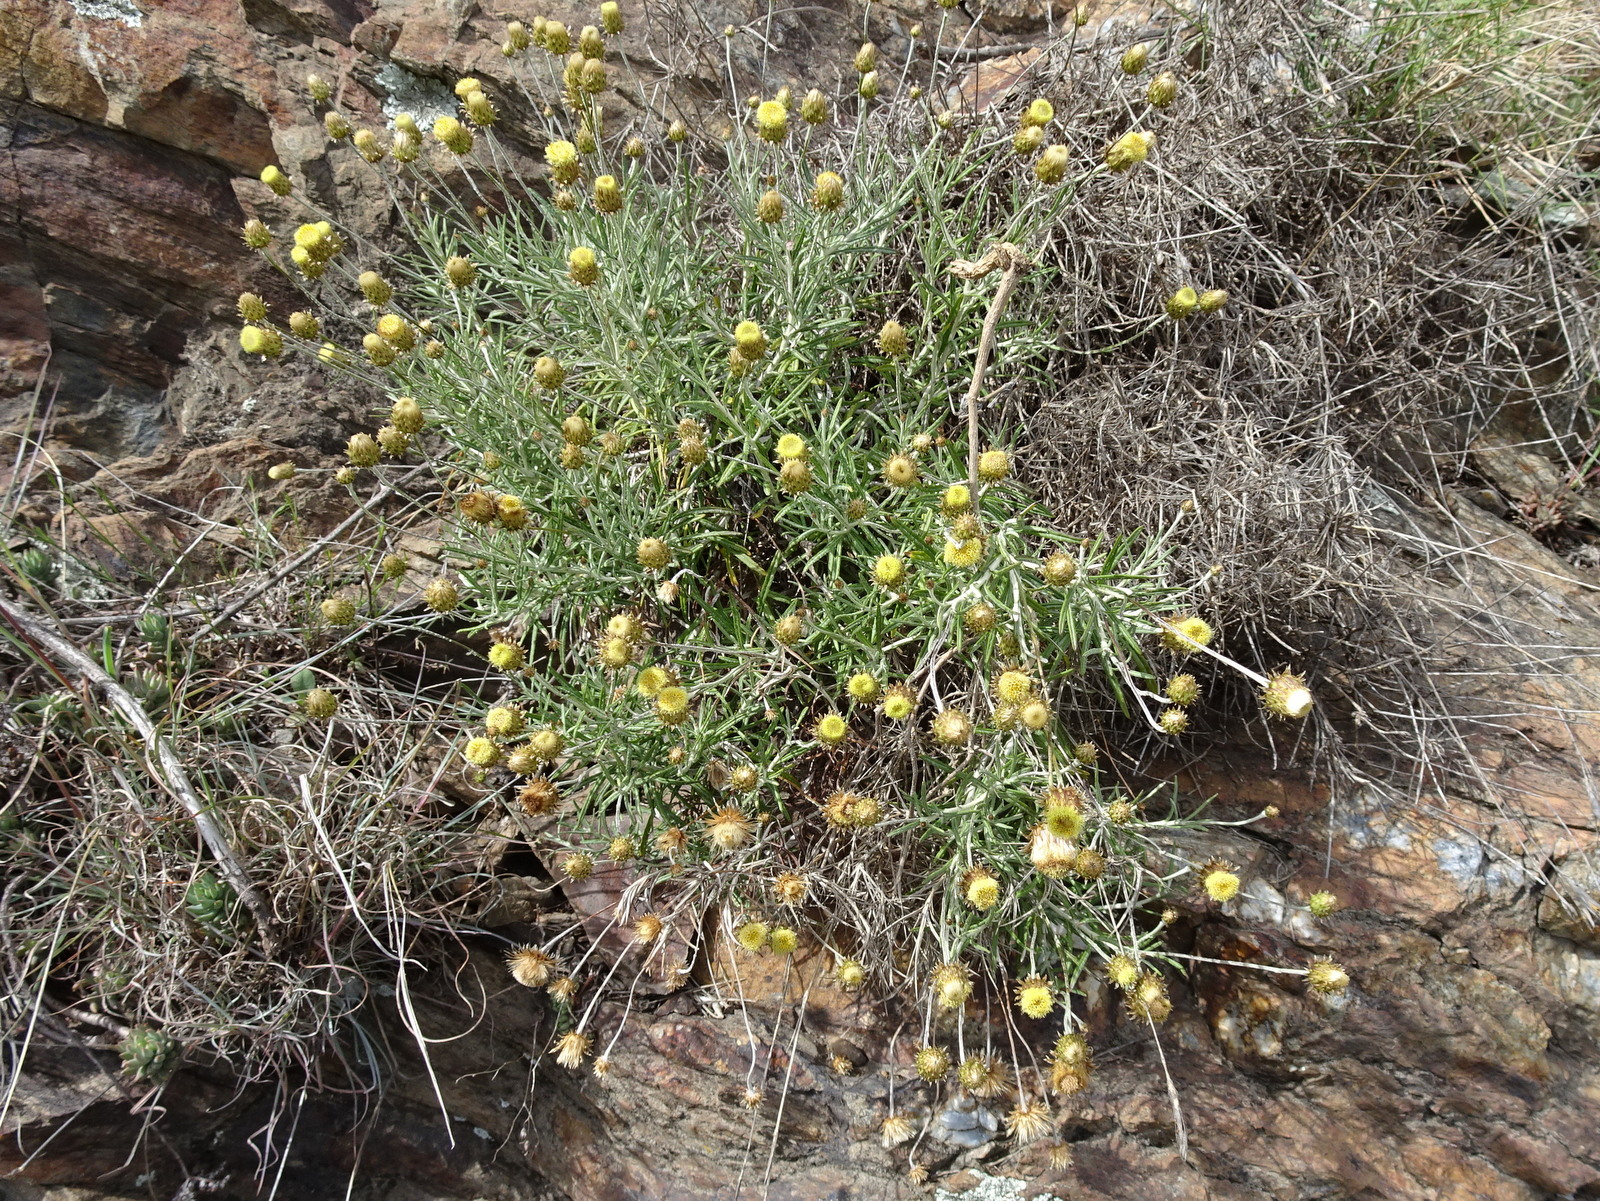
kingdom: Plantae
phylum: Tracheophyta
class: Magnoliopsida
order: Asterales
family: Asteraceae
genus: Phagnalon
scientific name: Phagnalon saxatile
